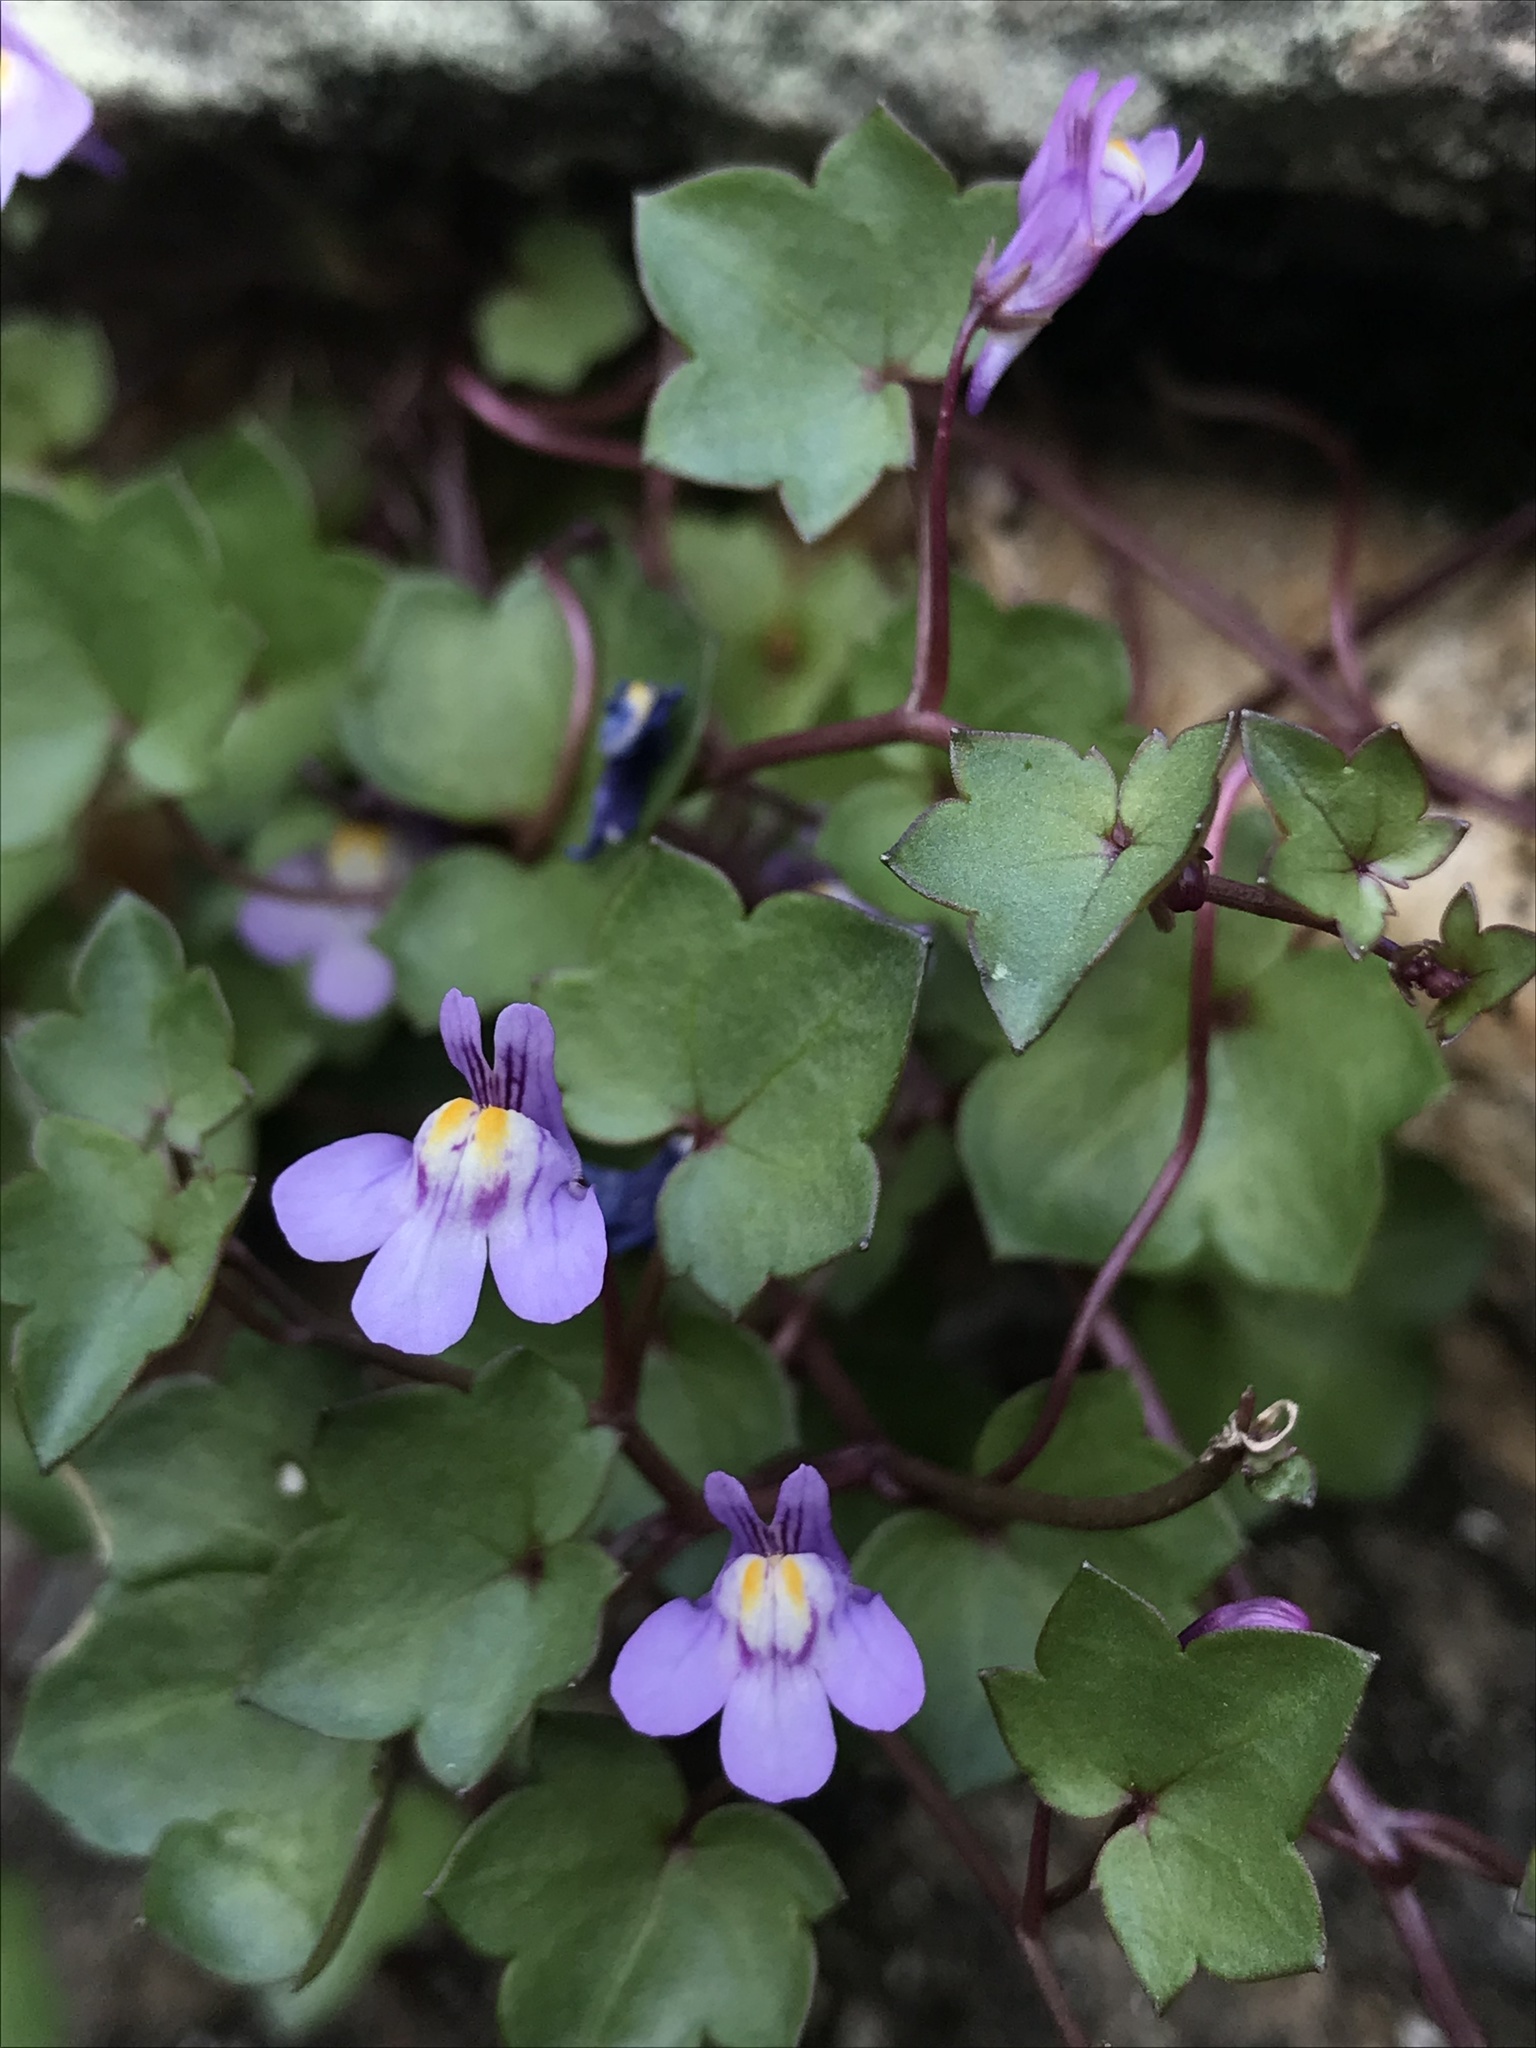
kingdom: Plantae
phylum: Tracheophyta
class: Magnoliopsida
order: Lamiales
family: Plantaginaceae
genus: Cymbalaria
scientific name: Cymbalaria muralis
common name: Ivy-leaved toadflax
